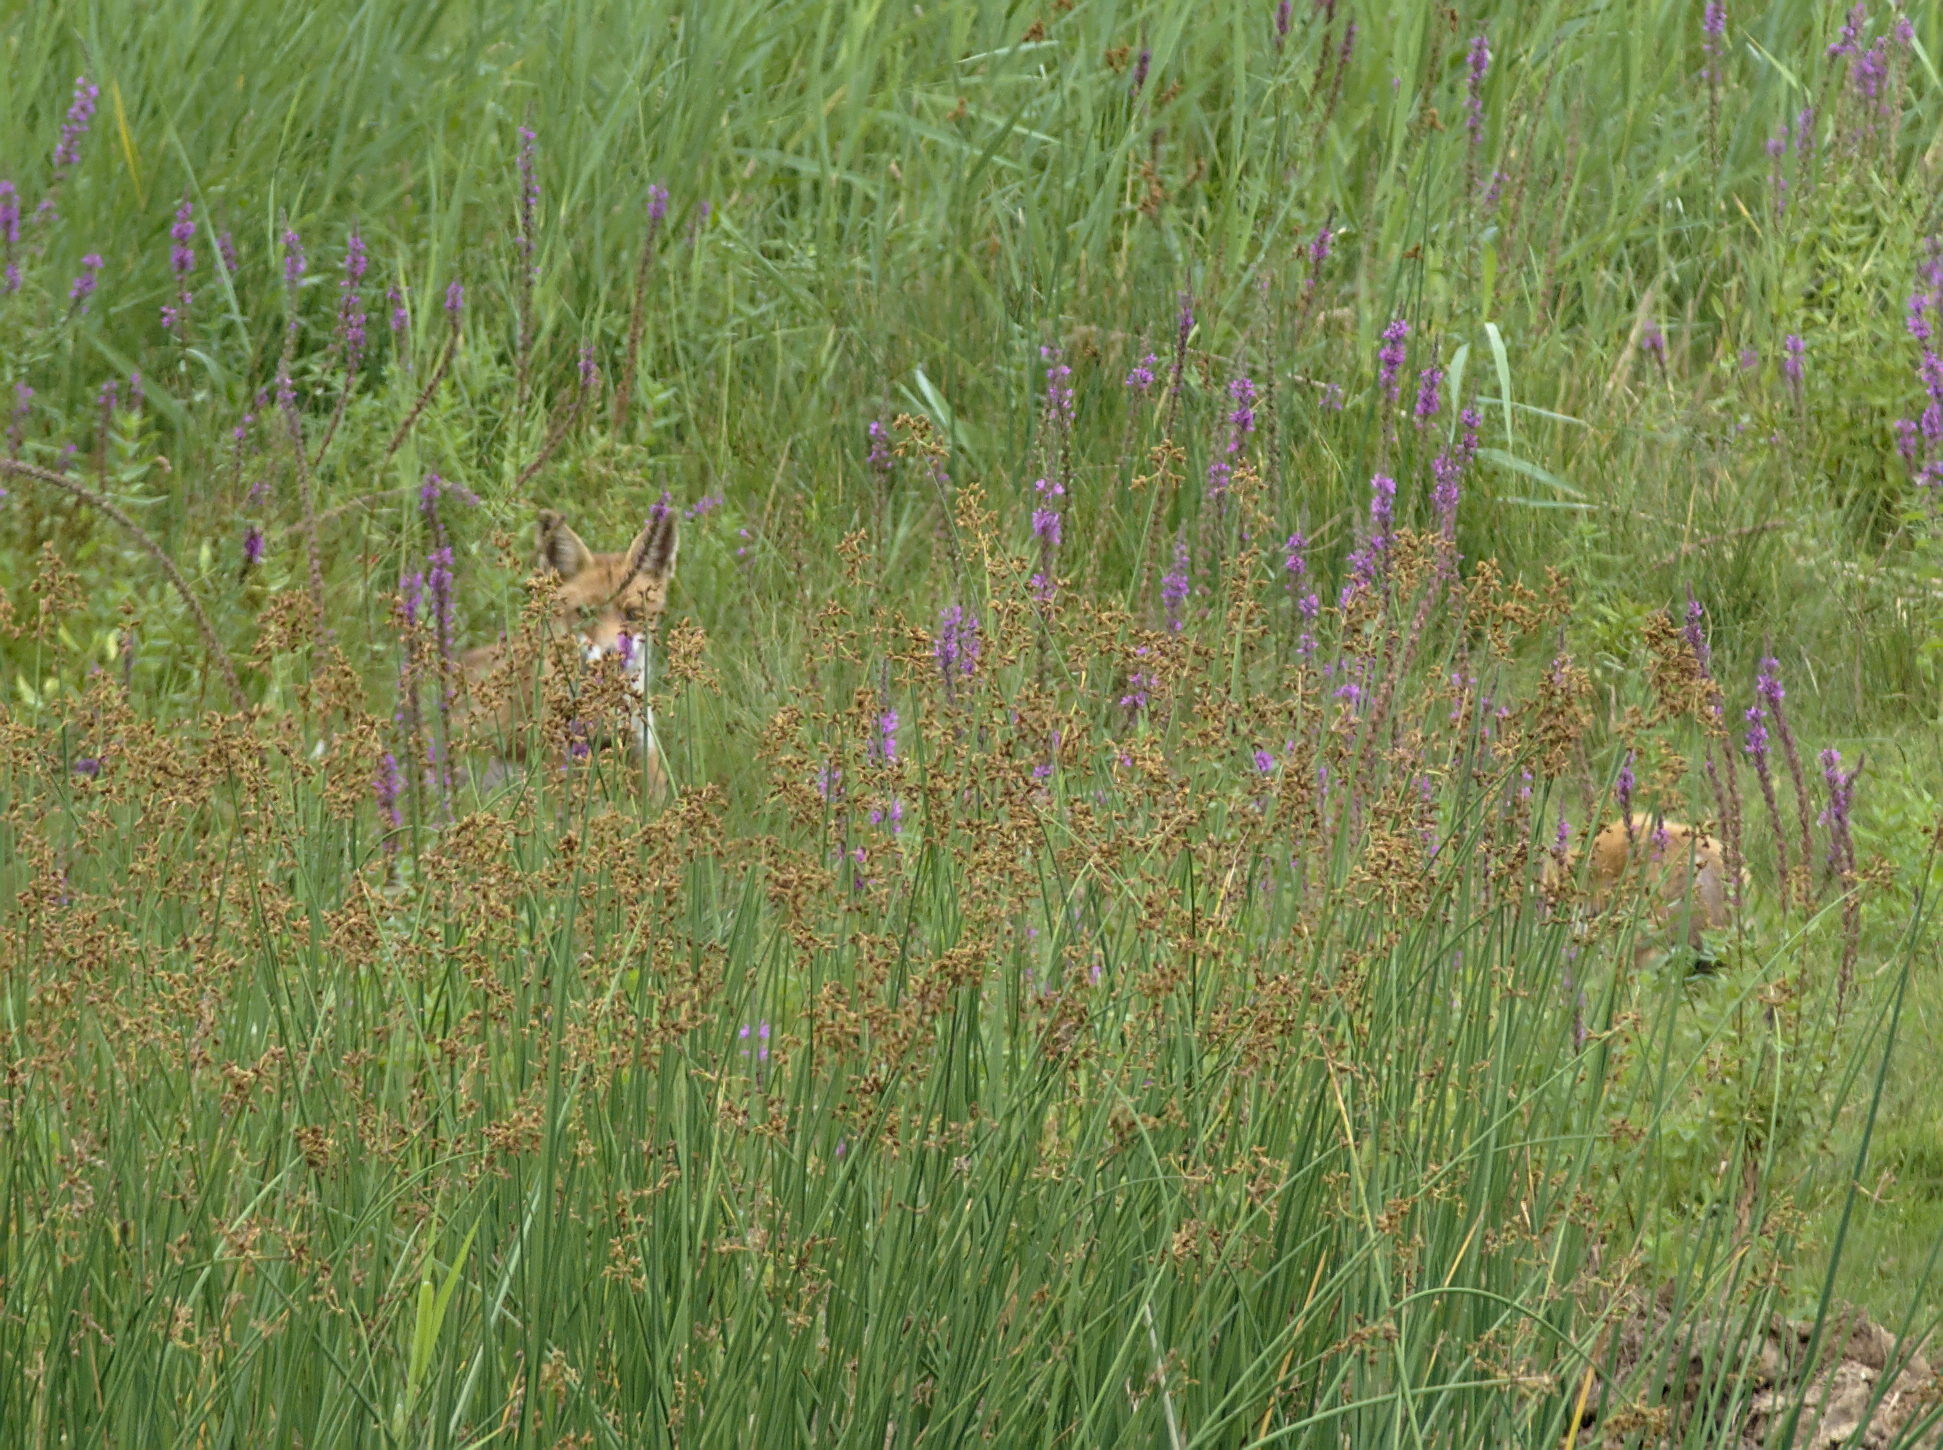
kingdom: Animalia
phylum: Chordata
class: Mammalia
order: Carnivora
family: Canidae
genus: Vulpes
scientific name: Vulpes vulpes
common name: Red fox
